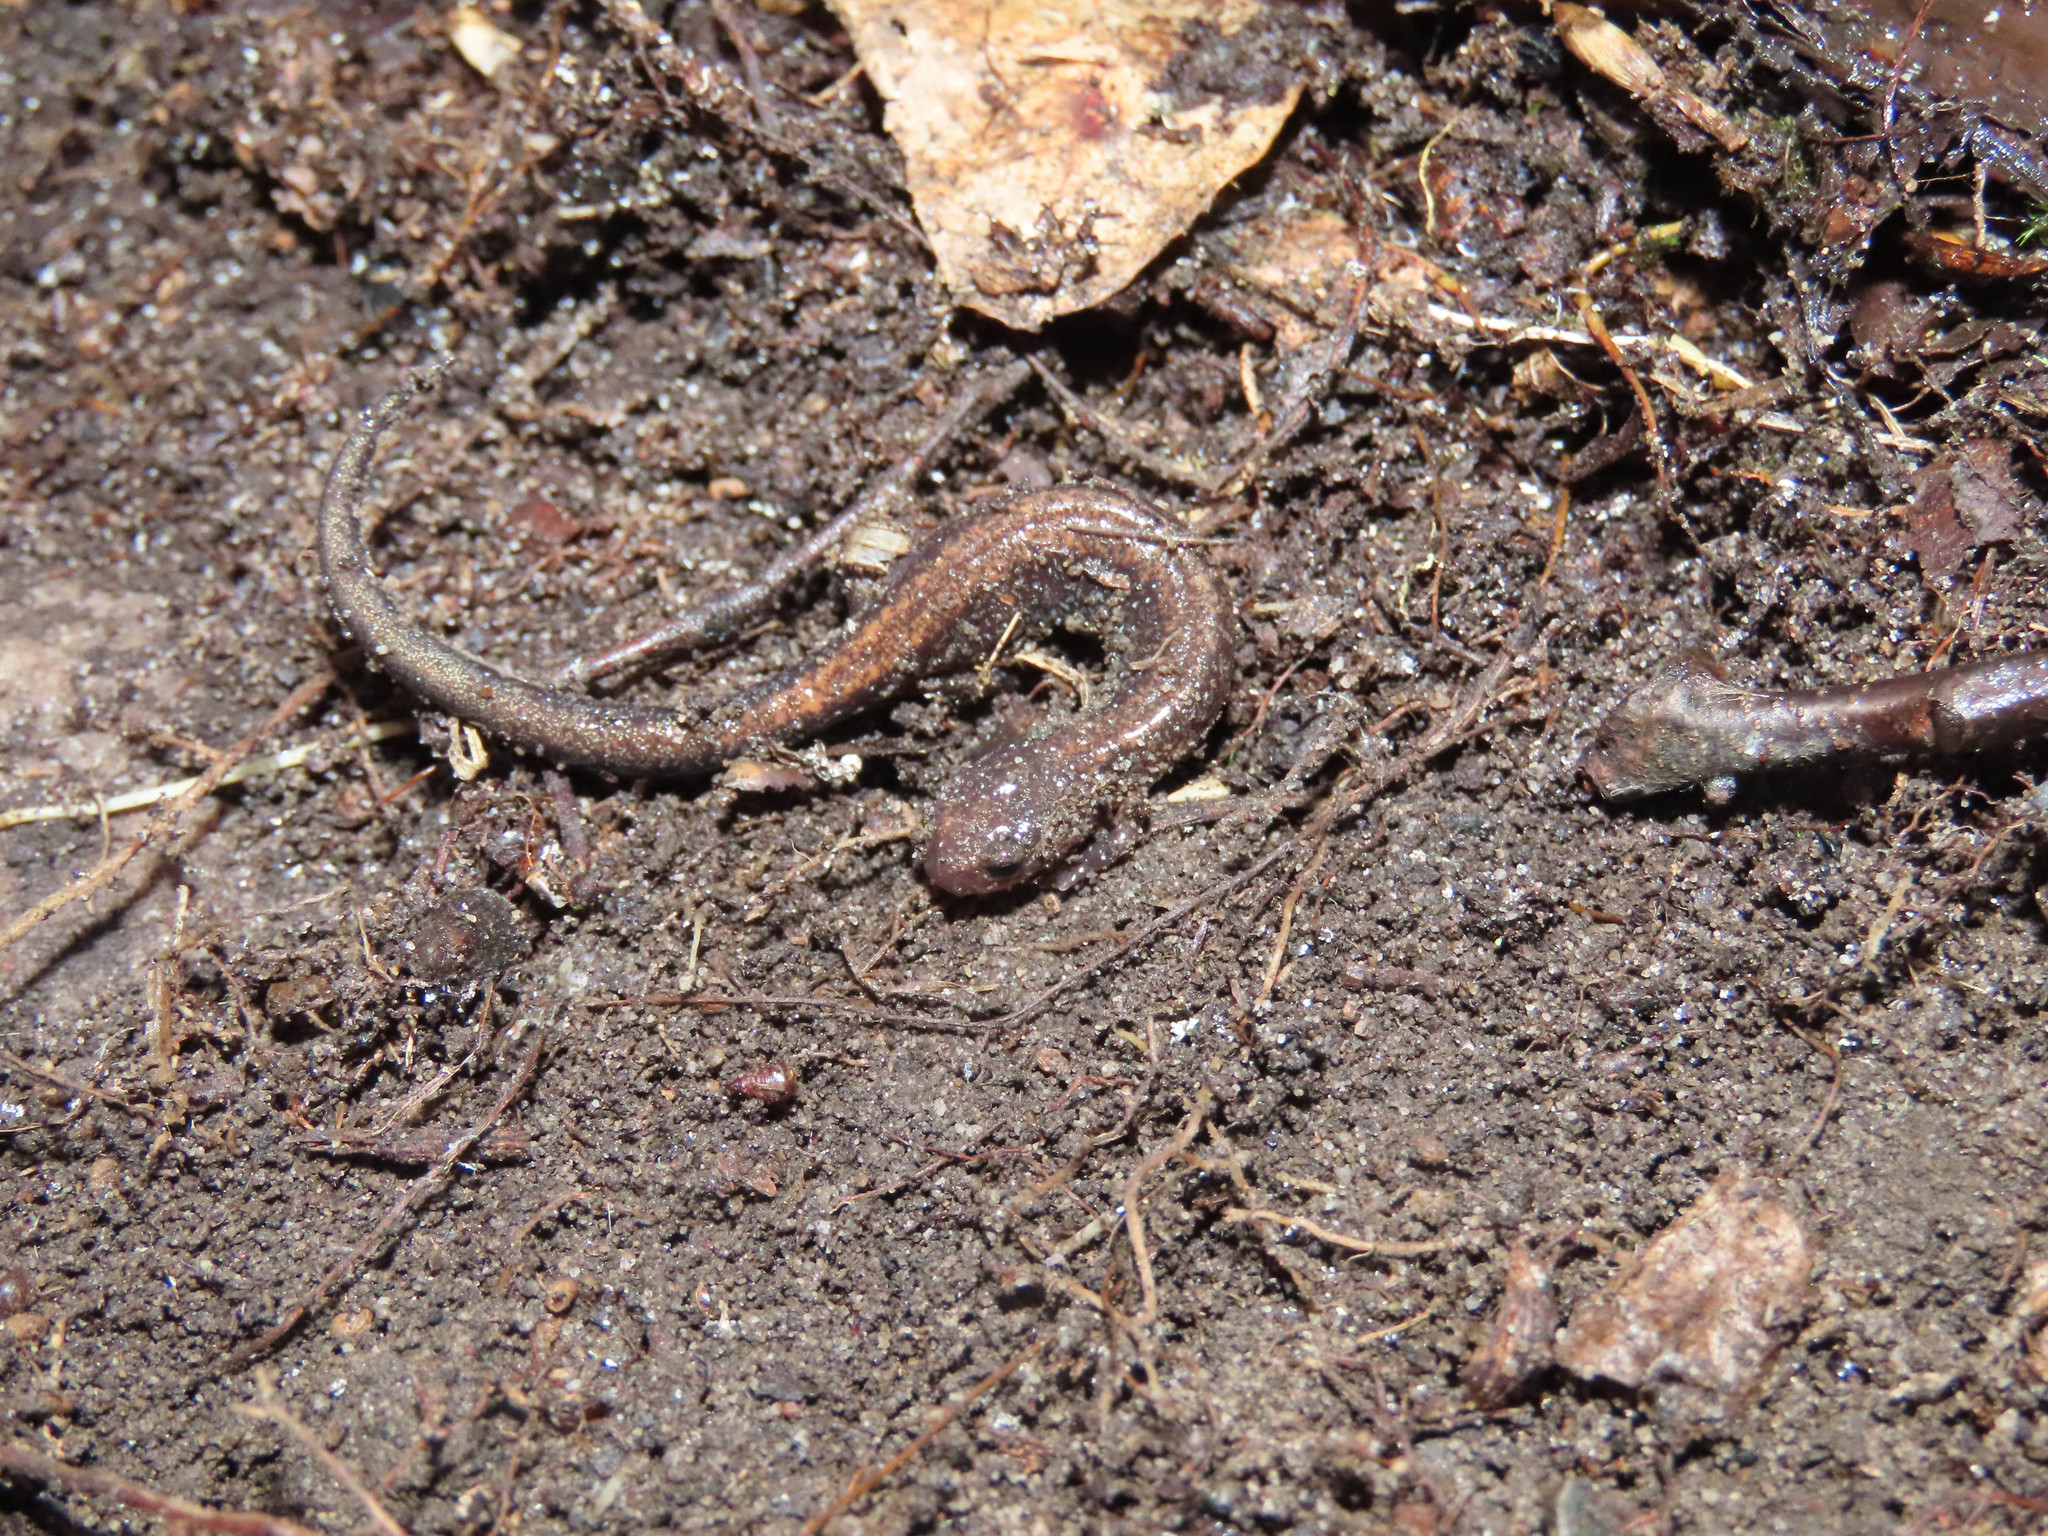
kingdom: Animalia
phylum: Chordata
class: Amphibia
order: Caudata
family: Plethodontidae
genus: Plethodon
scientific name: Plethodon cinereus
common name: Redback salamander
